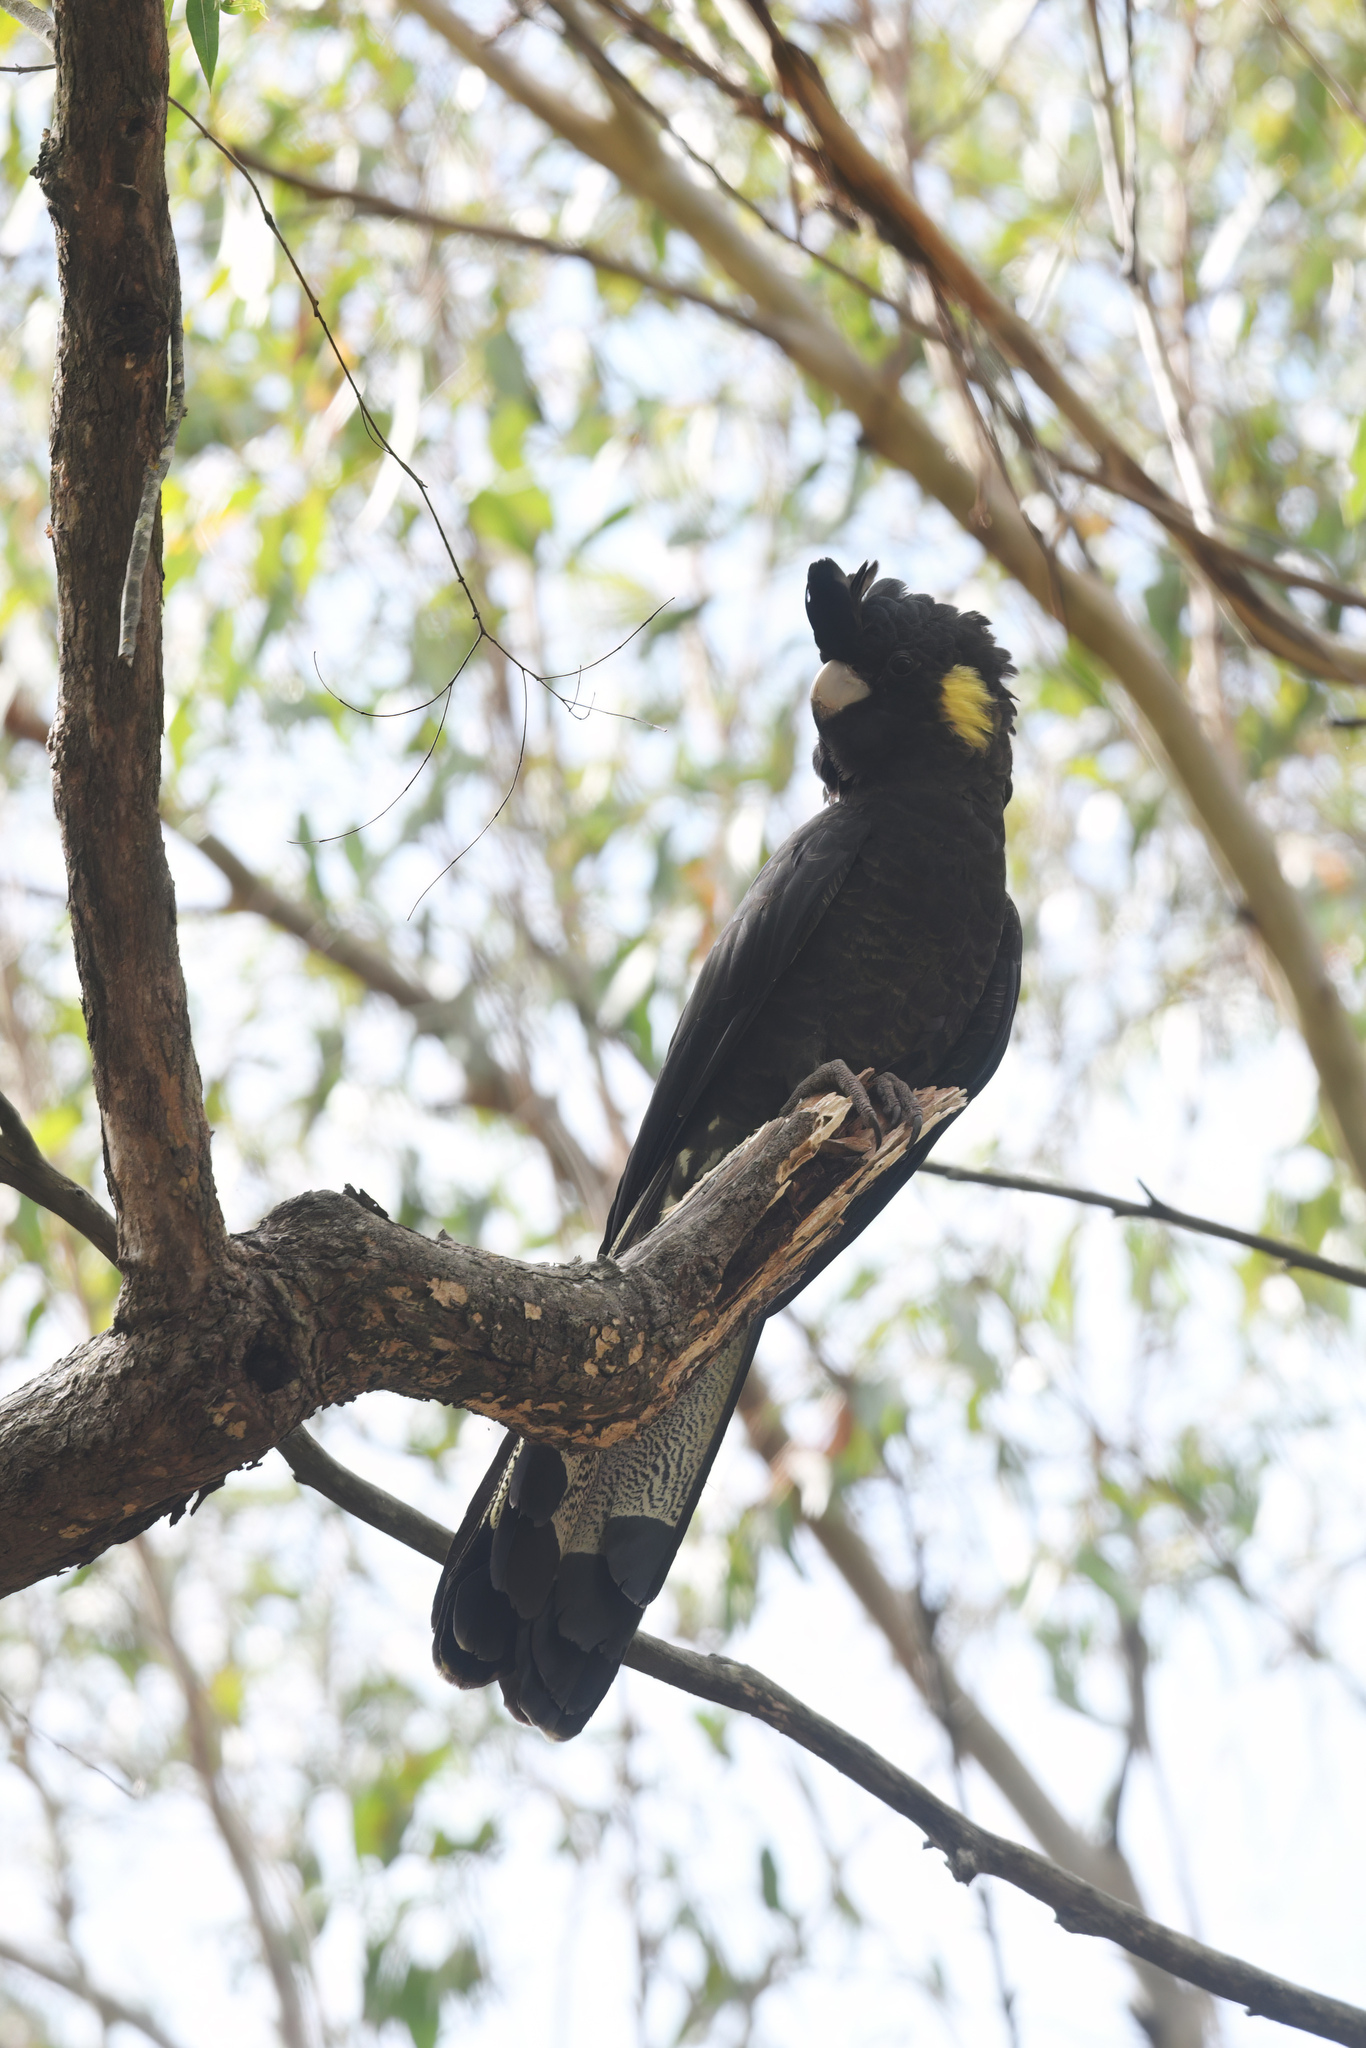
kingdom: Animalia
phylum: Chordata
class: Aves
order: Psittaciformes
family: Cacatuidae
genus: Zanda
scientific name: Zanda funerea
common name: Yellow-tailed black-cockatoo
